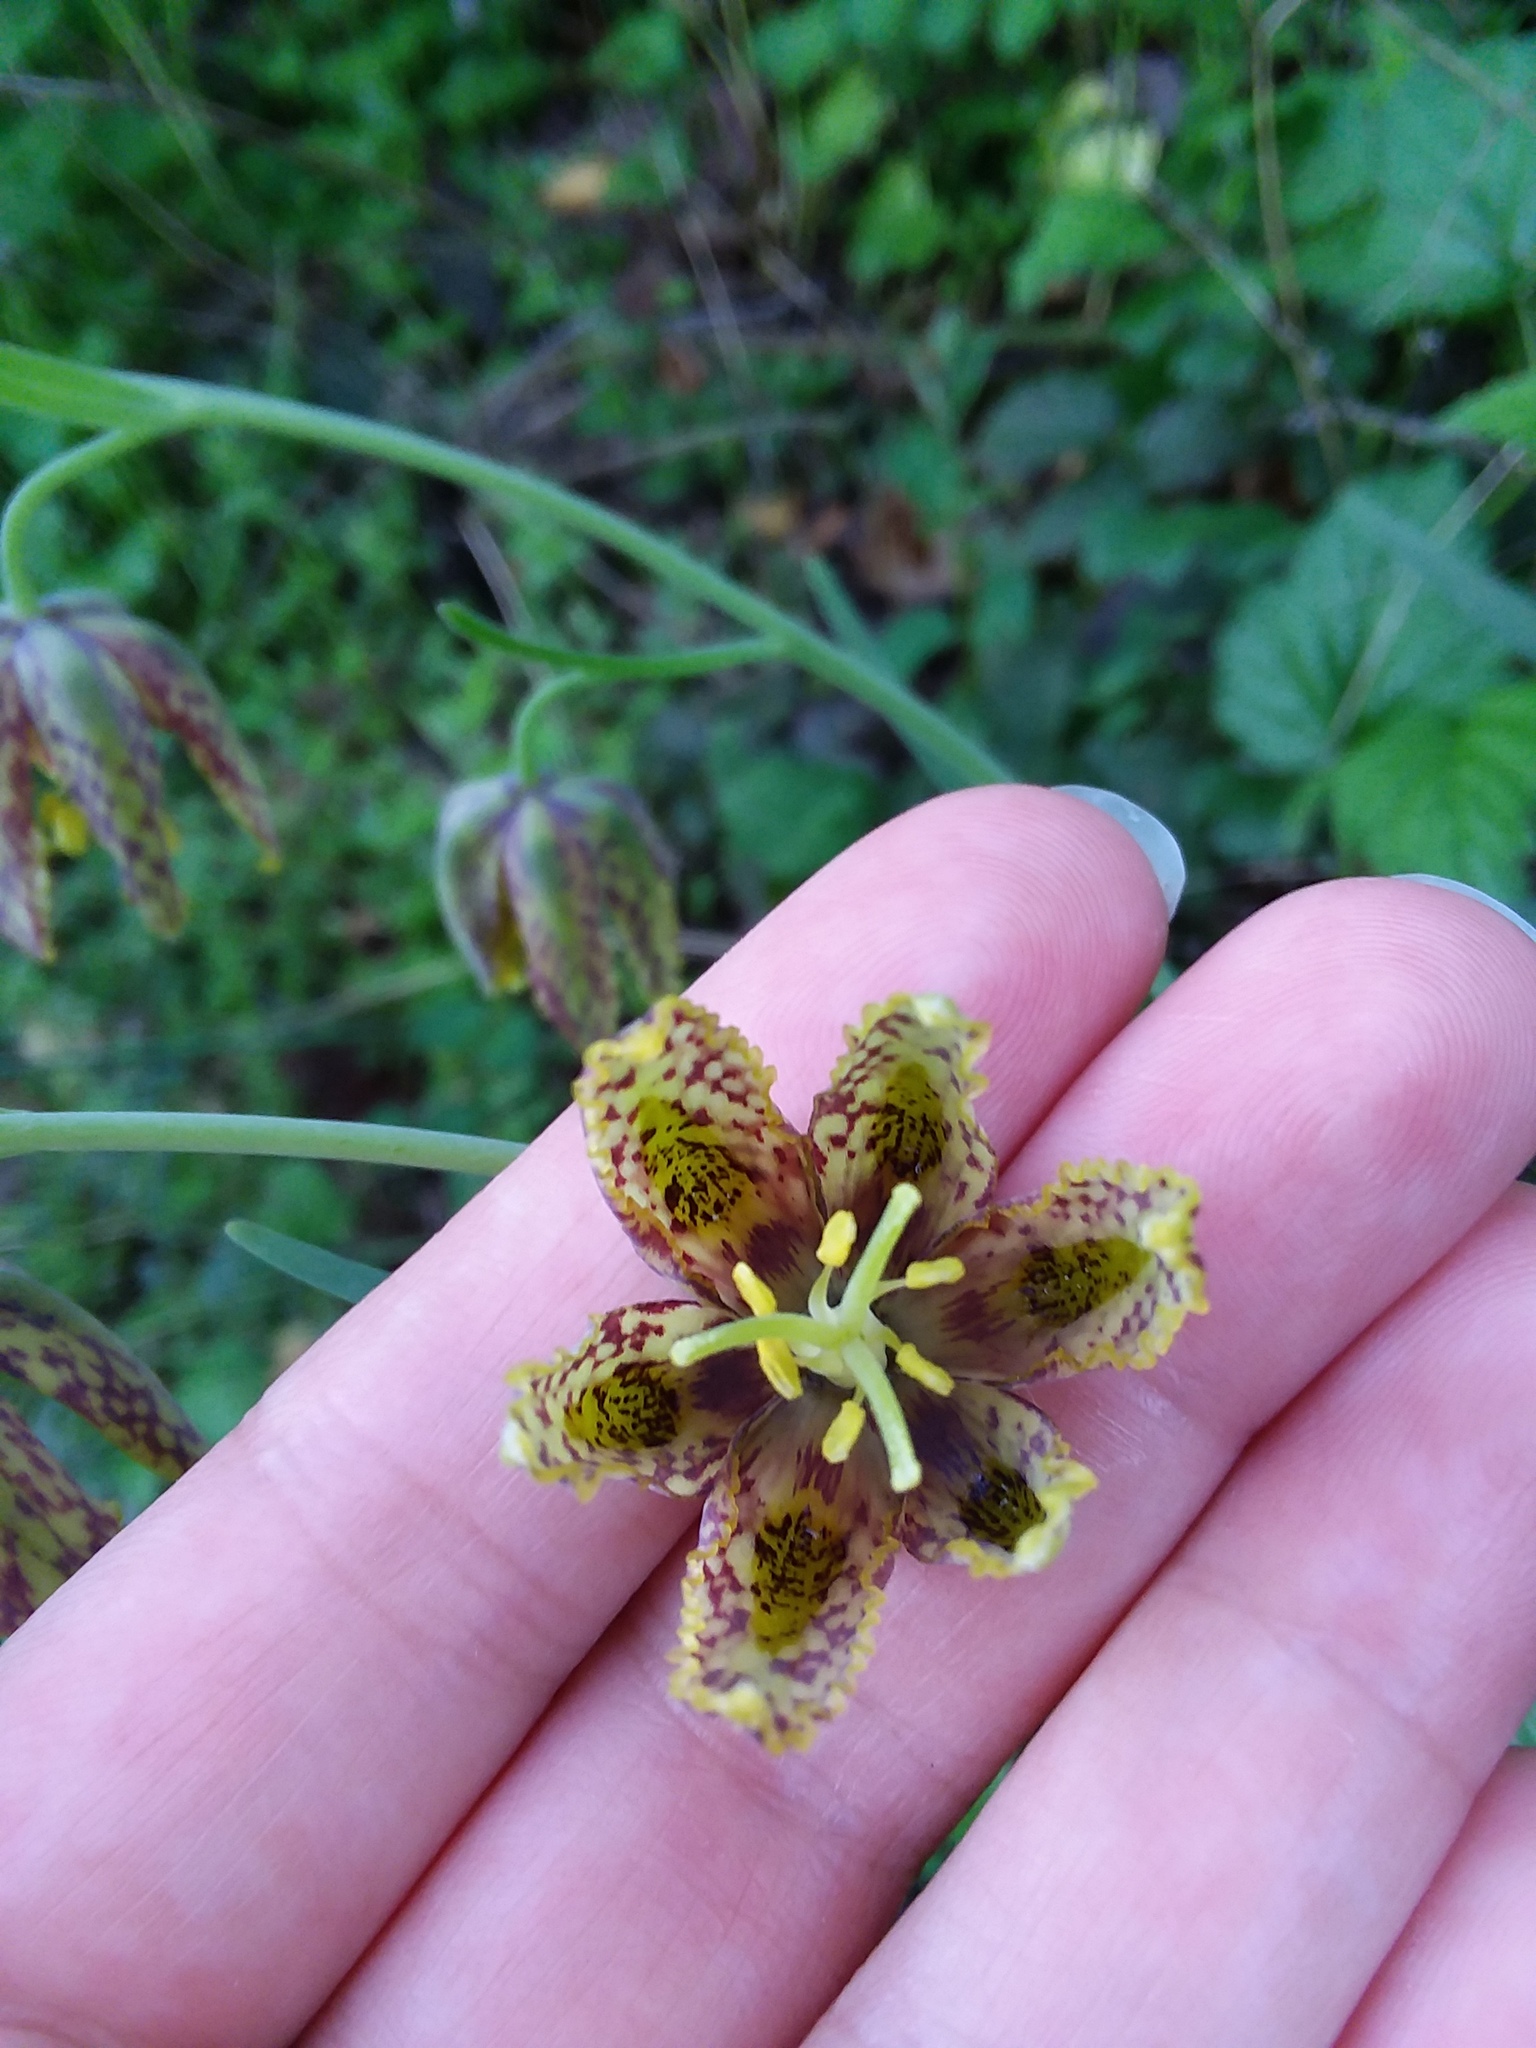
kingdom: Plantae
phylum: Tracheophyta
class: Liliopsida
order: Liliales
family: Liliaceae
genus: Fritillaria
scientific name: Fritillaria affinis
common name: Ojai fritillary
